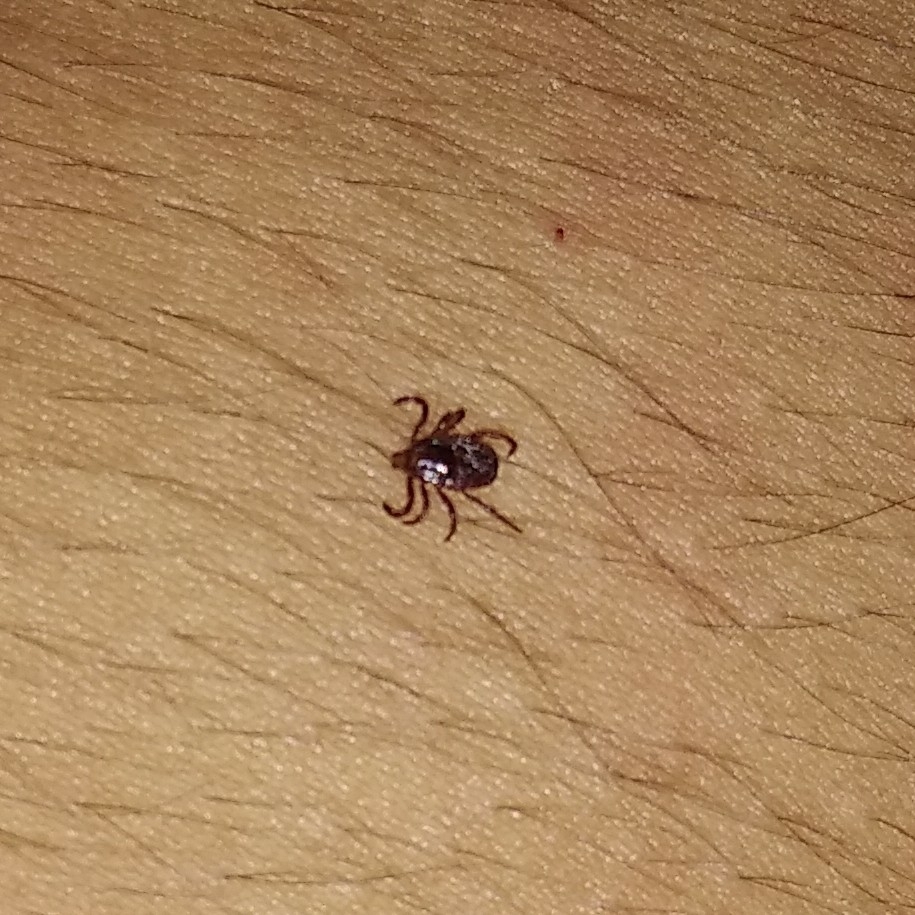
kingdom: Animalia
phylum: Arthropoda
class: Arachnida
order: Ixodida
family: Ixodidae
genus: Rhipicephalus
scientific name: Rhipicephalus sanguineus
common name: Brown dog tick
